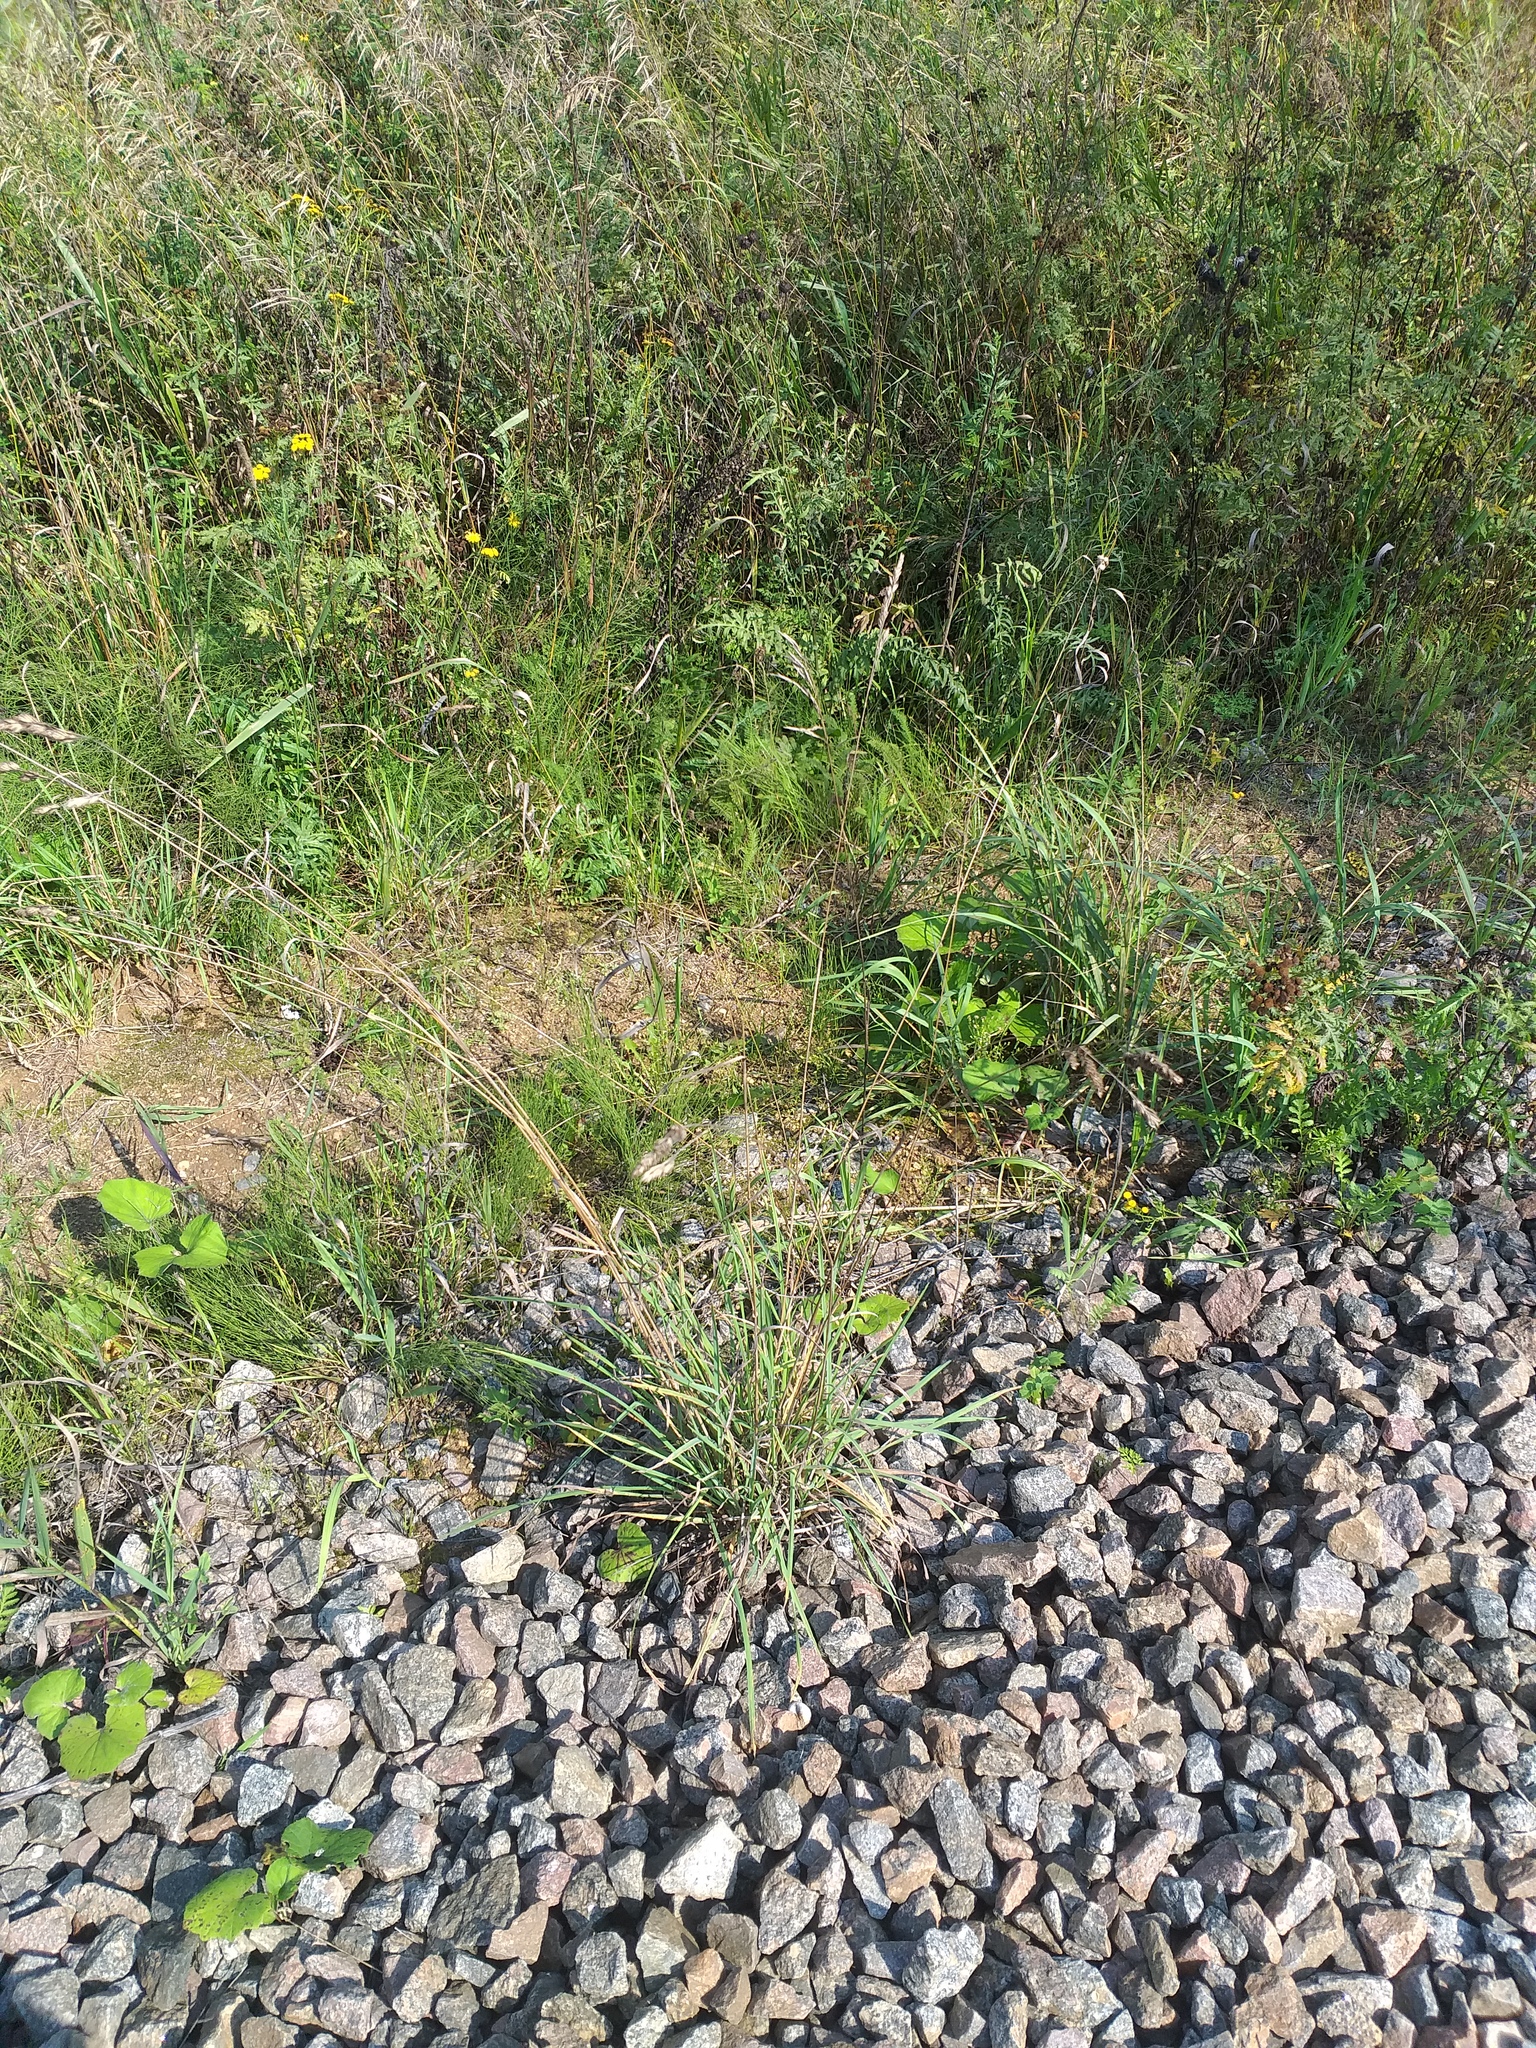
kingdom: Plantae
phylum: Tracheophyta
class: Liliopsida
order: Poales
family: Poaceae
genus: Dactylis
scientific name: Dactylis glomerata
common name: Orchardgrass
